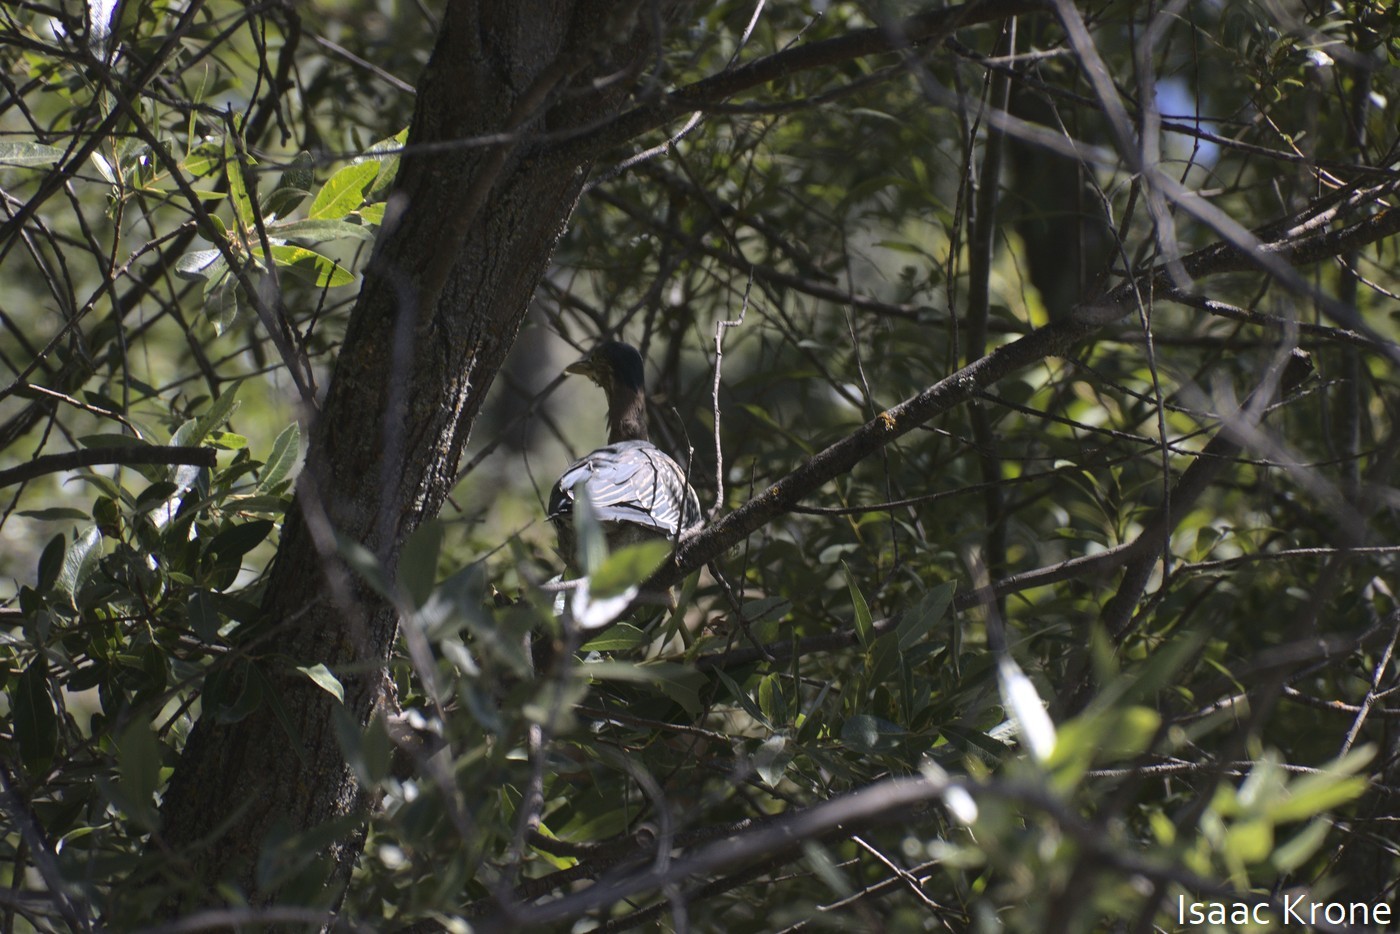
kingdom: Animalia
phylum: Chordata
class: Aves
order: Pelecaniformes
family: Ardeidae
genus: Butorides
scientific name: Butorides virescens
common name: Green heron
